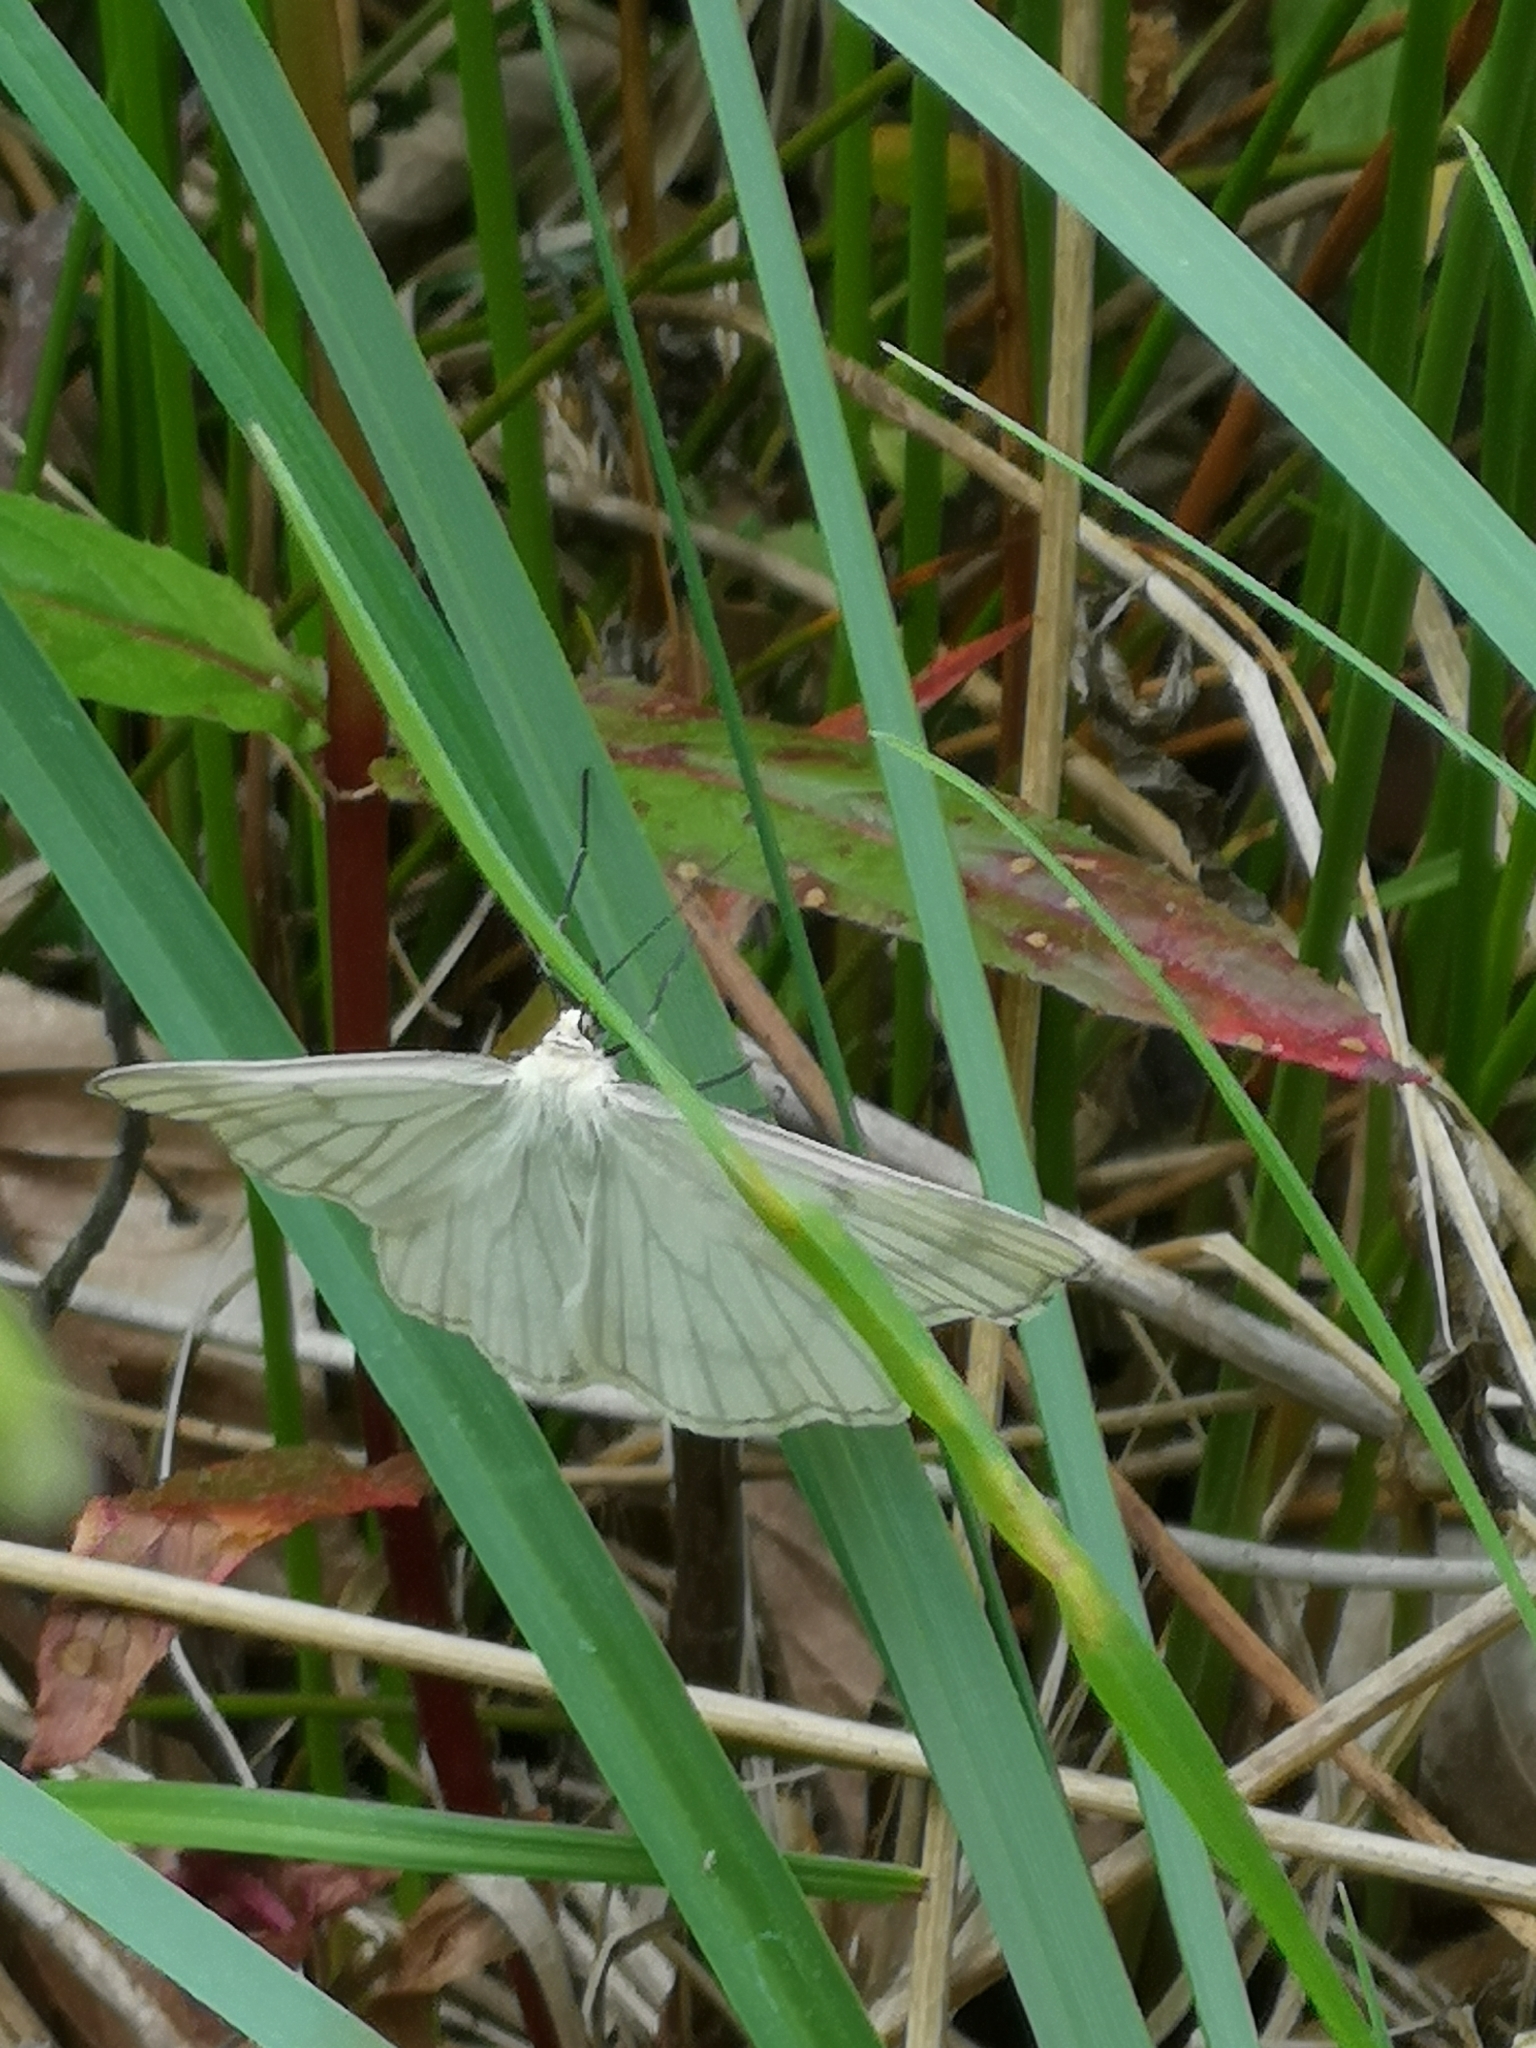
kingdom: Animalia
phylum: Arthropoda
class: Insecta
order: Lepidoptera
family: Geometridae
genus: Siona
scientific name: Siona lineata
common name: Black-veined moth
